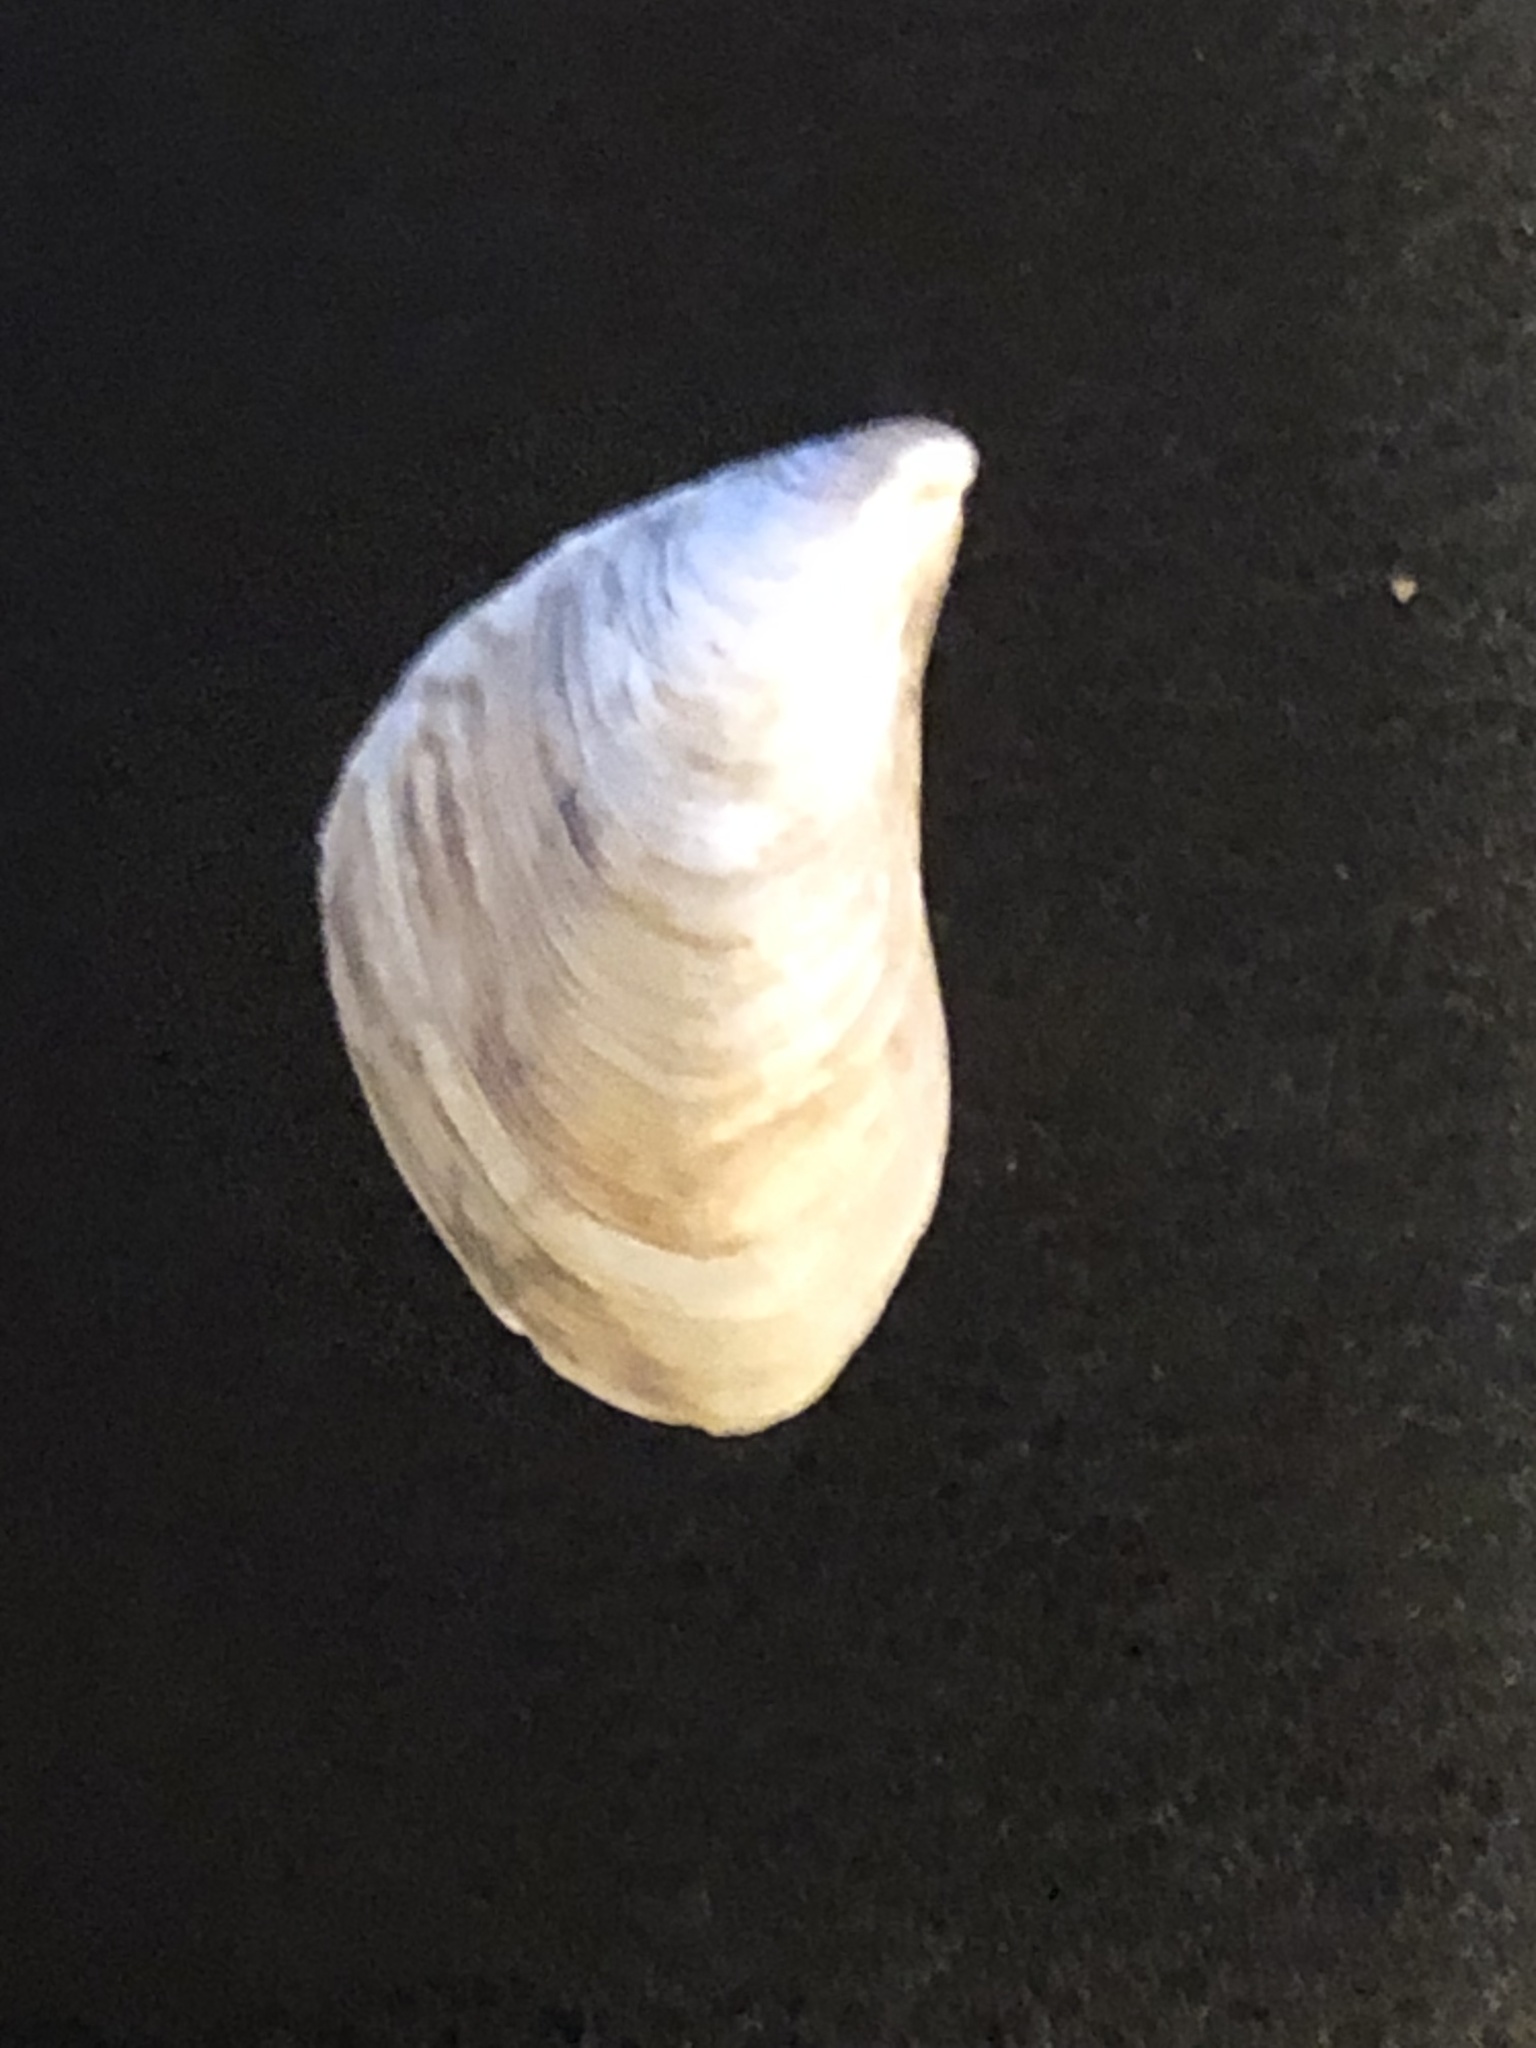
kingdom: Animalia
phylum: Mollusca
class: Bivalvia
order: Myida
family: Dreissenidae
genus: Dreissena
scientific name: Dreissena bugensis
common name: Quagga mussel
